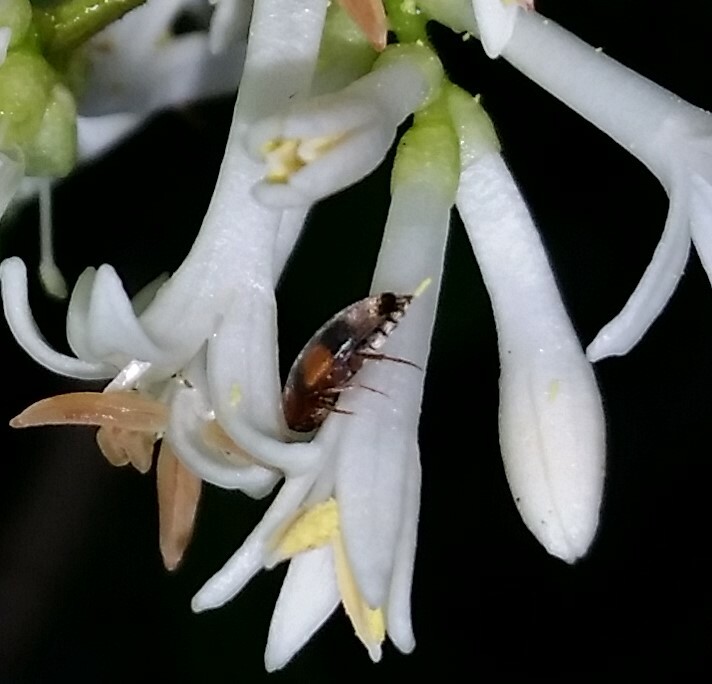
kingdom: Animalia
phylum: Arthropoda
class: Insecta
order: Coleoptera
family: Scraptiidae
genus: Pentaria
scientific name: Pentaria trifasciata
